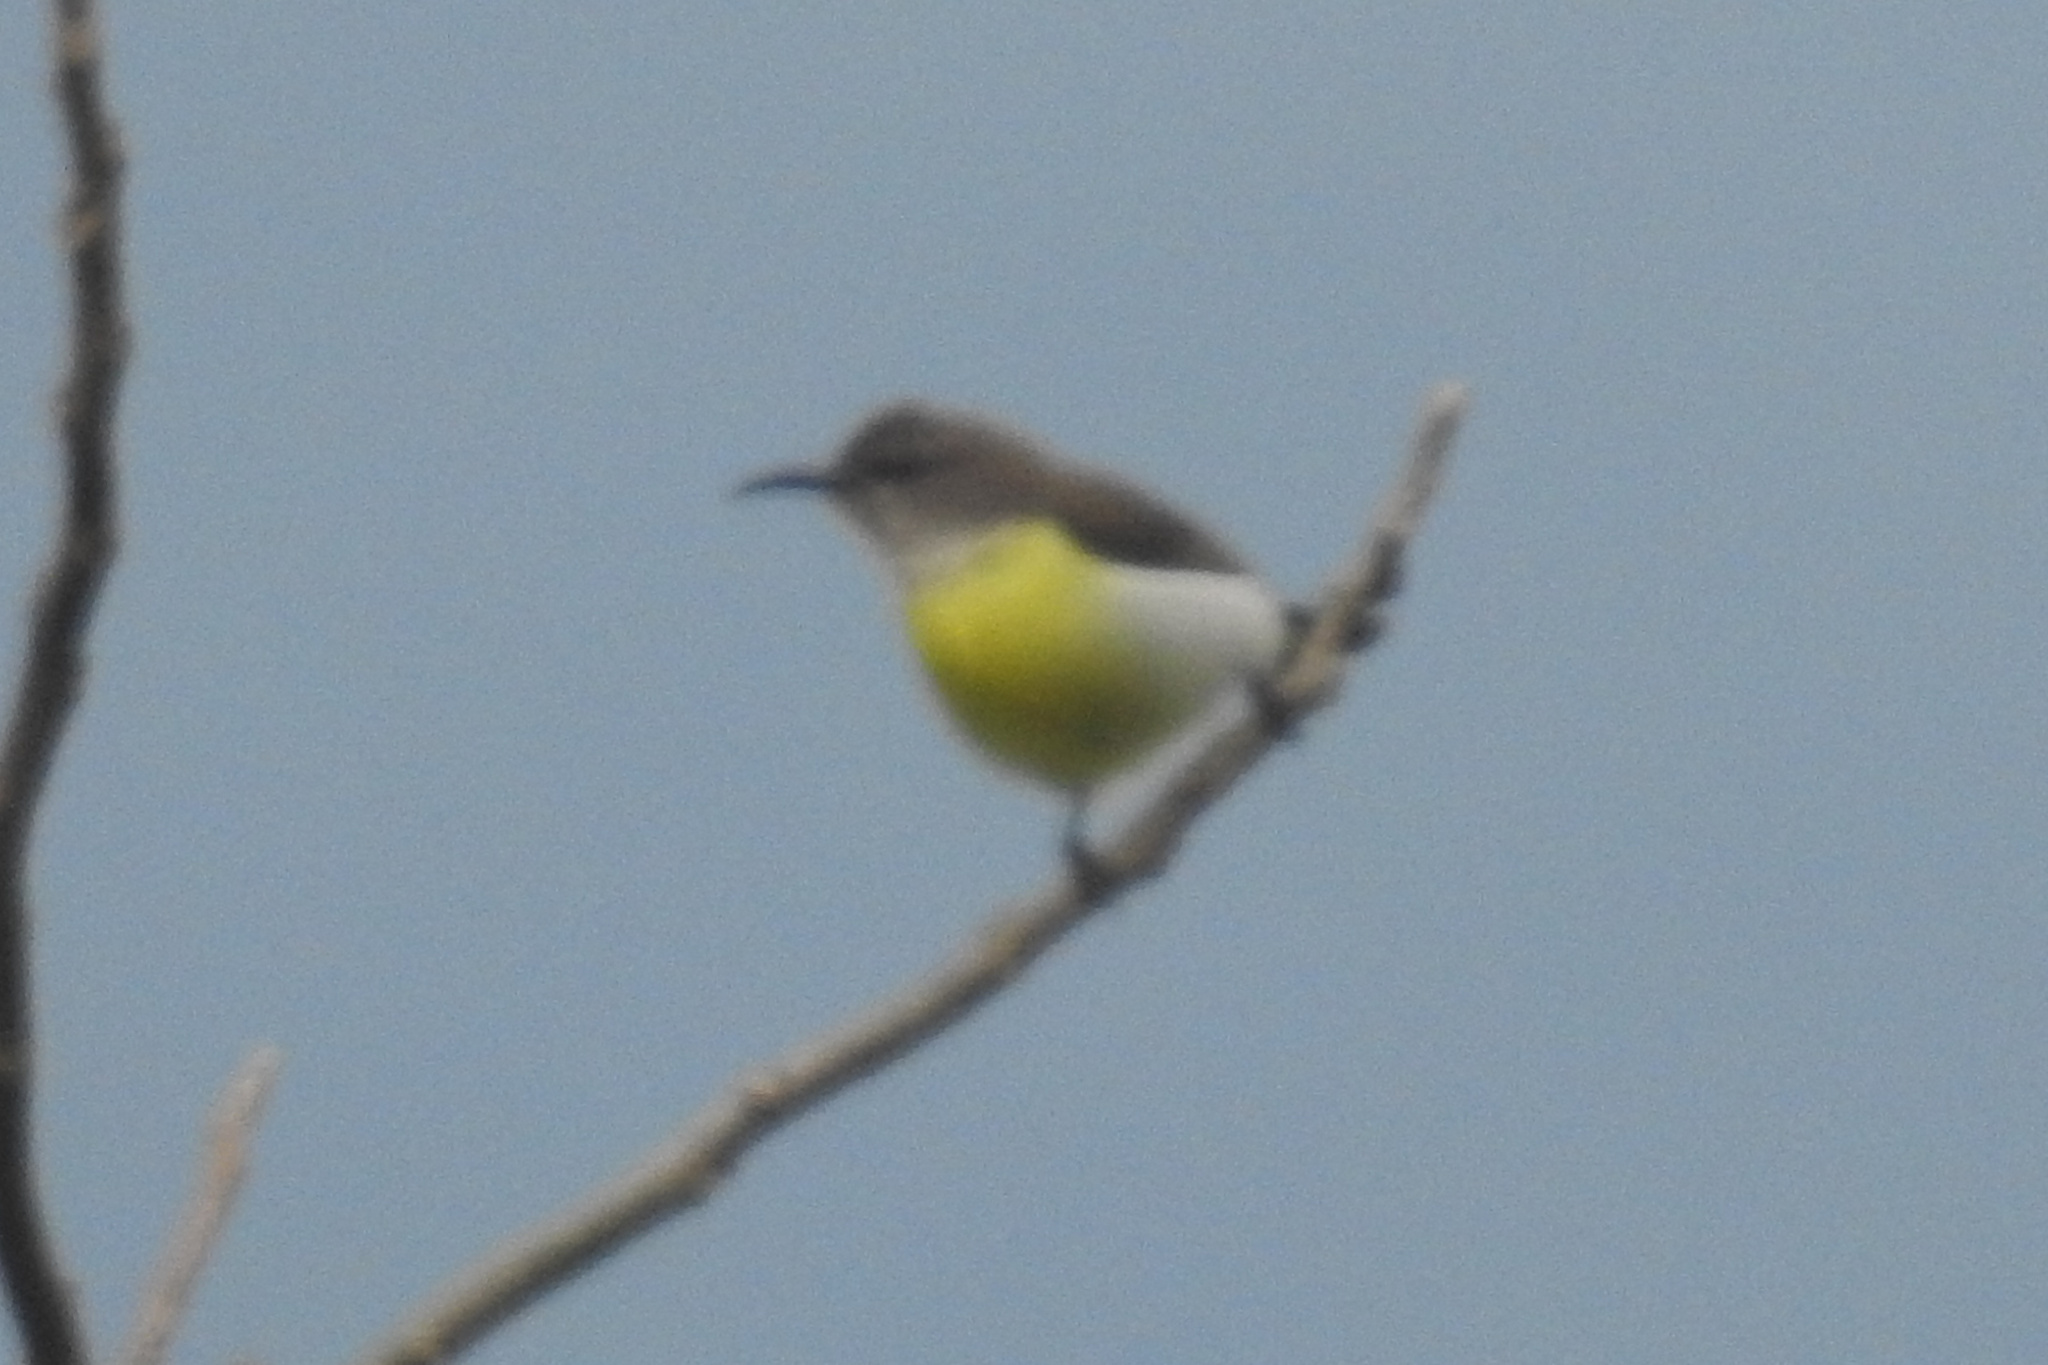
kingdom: Animalia
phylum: Chordata
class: Aves
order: Passeriformes
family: Nectariniidae
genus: Leptocoma
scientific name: Leptocoma zeylonica
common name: Purple-rumped sunbird
